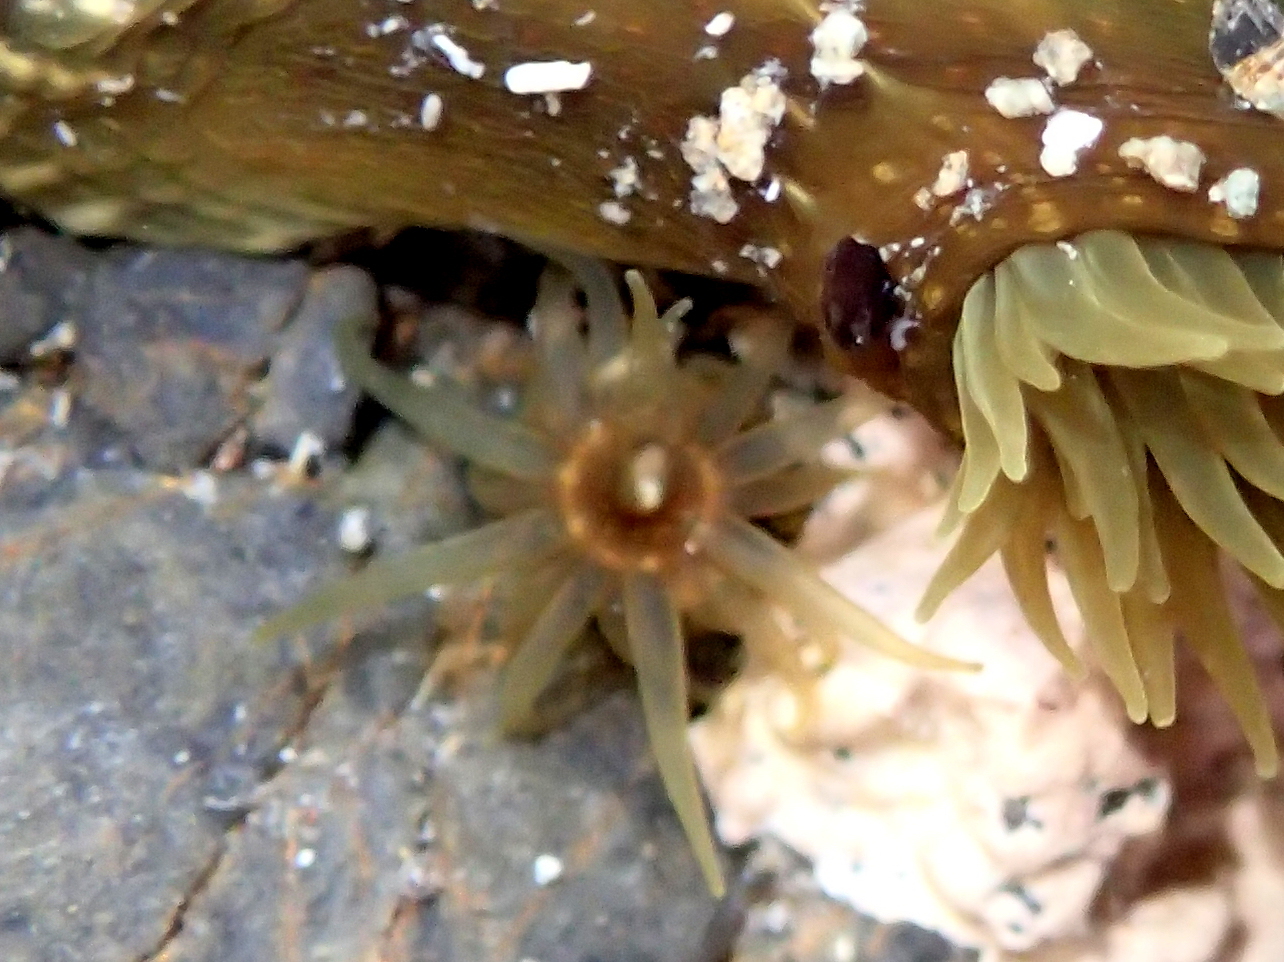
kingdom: Animalia
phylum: Cnidaria
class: Anthozoa
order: Actiniaria
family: Actiniidae
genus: Isactinia
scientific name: Isactinia olivacea
